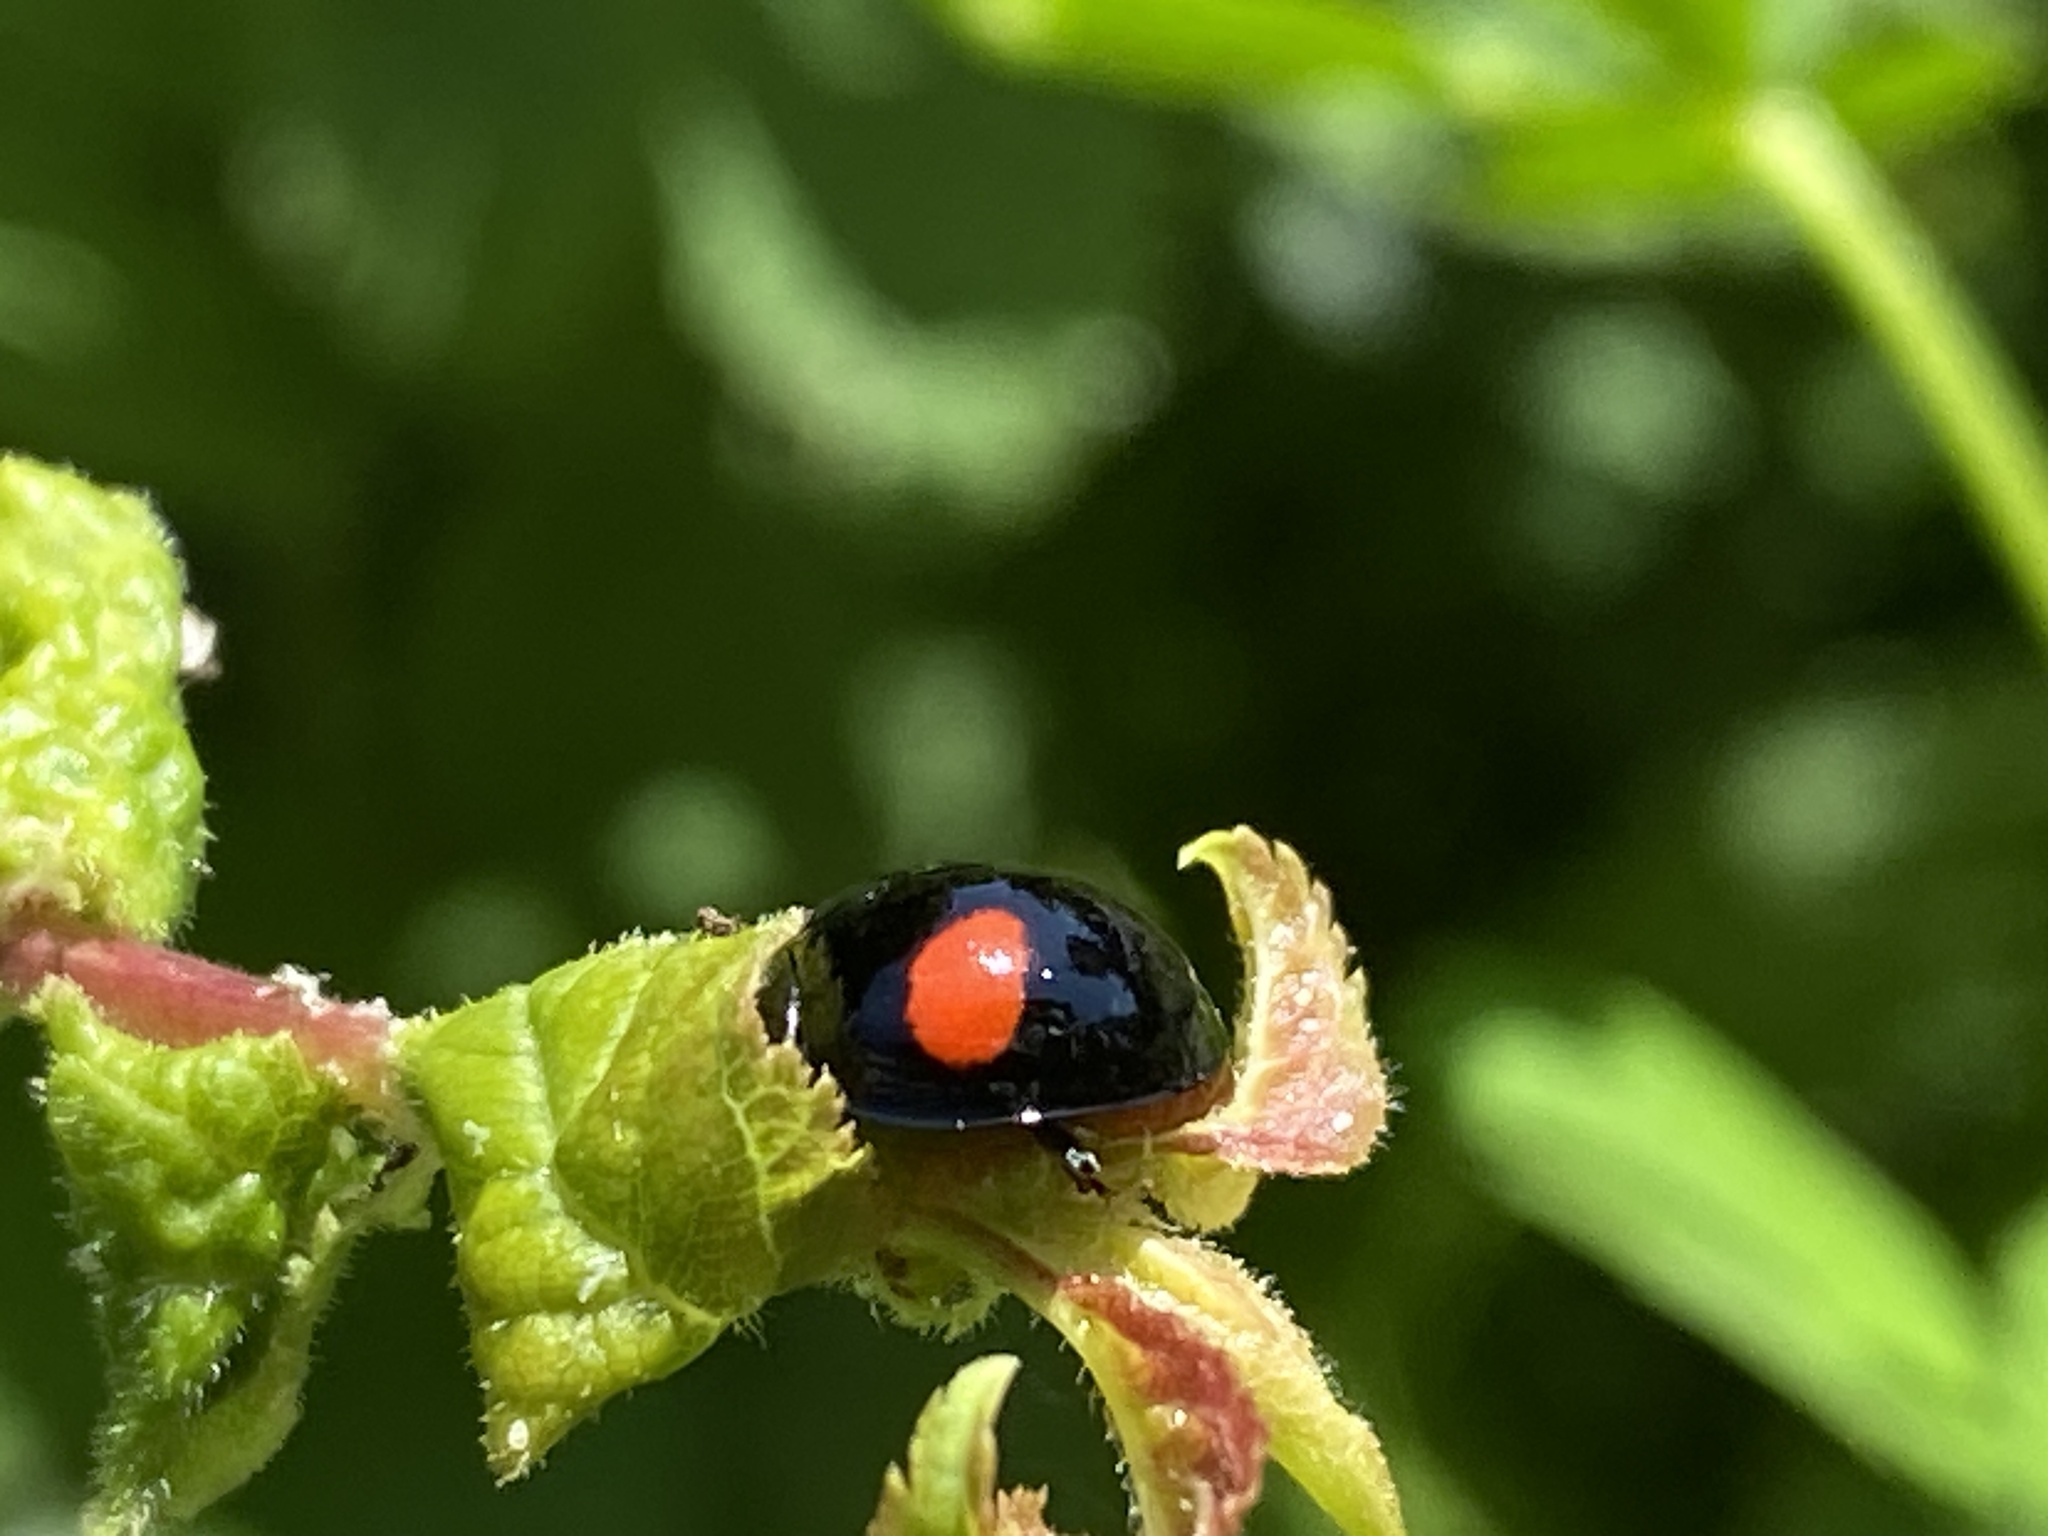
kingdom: Animalia
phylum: Arthropoda
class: Insecta
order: Coleoptera
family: Coccinellidae
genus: Chilocorus
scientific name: Chilocorus renipustulatus
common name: Kidney-spot ladybird
